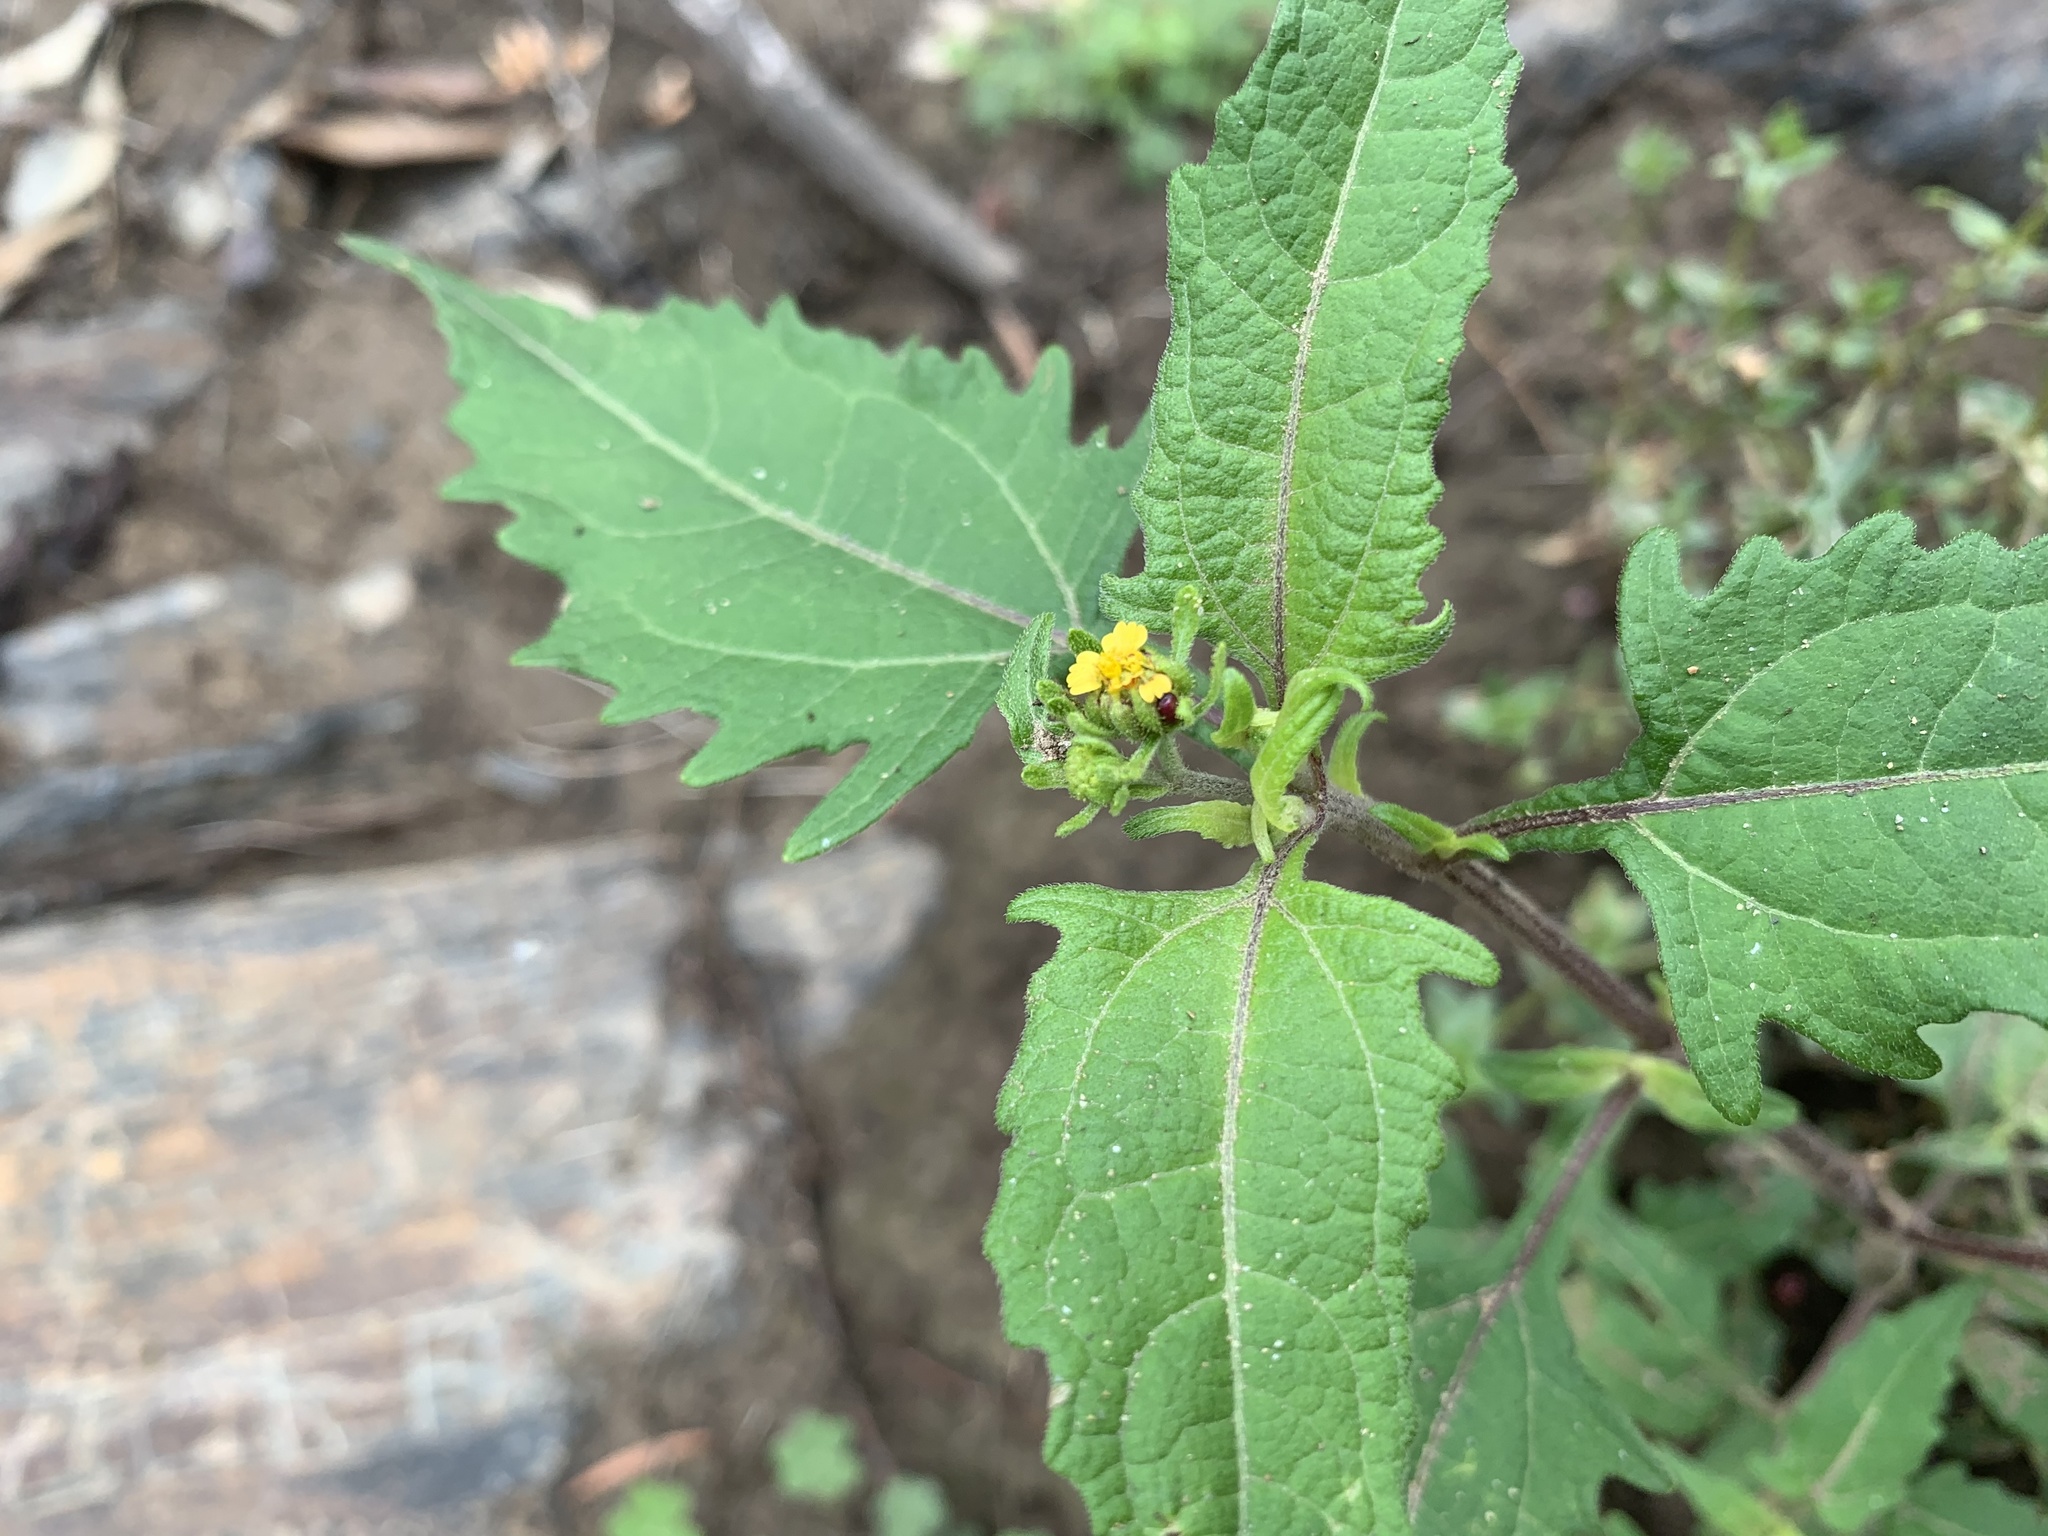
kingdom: Plantae
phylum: Tracheophyta
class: Magnoliopsida
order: Asterales
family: Asteraceae
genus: Sigesbeckia
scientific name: Sigesbeckia orientalis
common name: Eastern st paul's-wort
